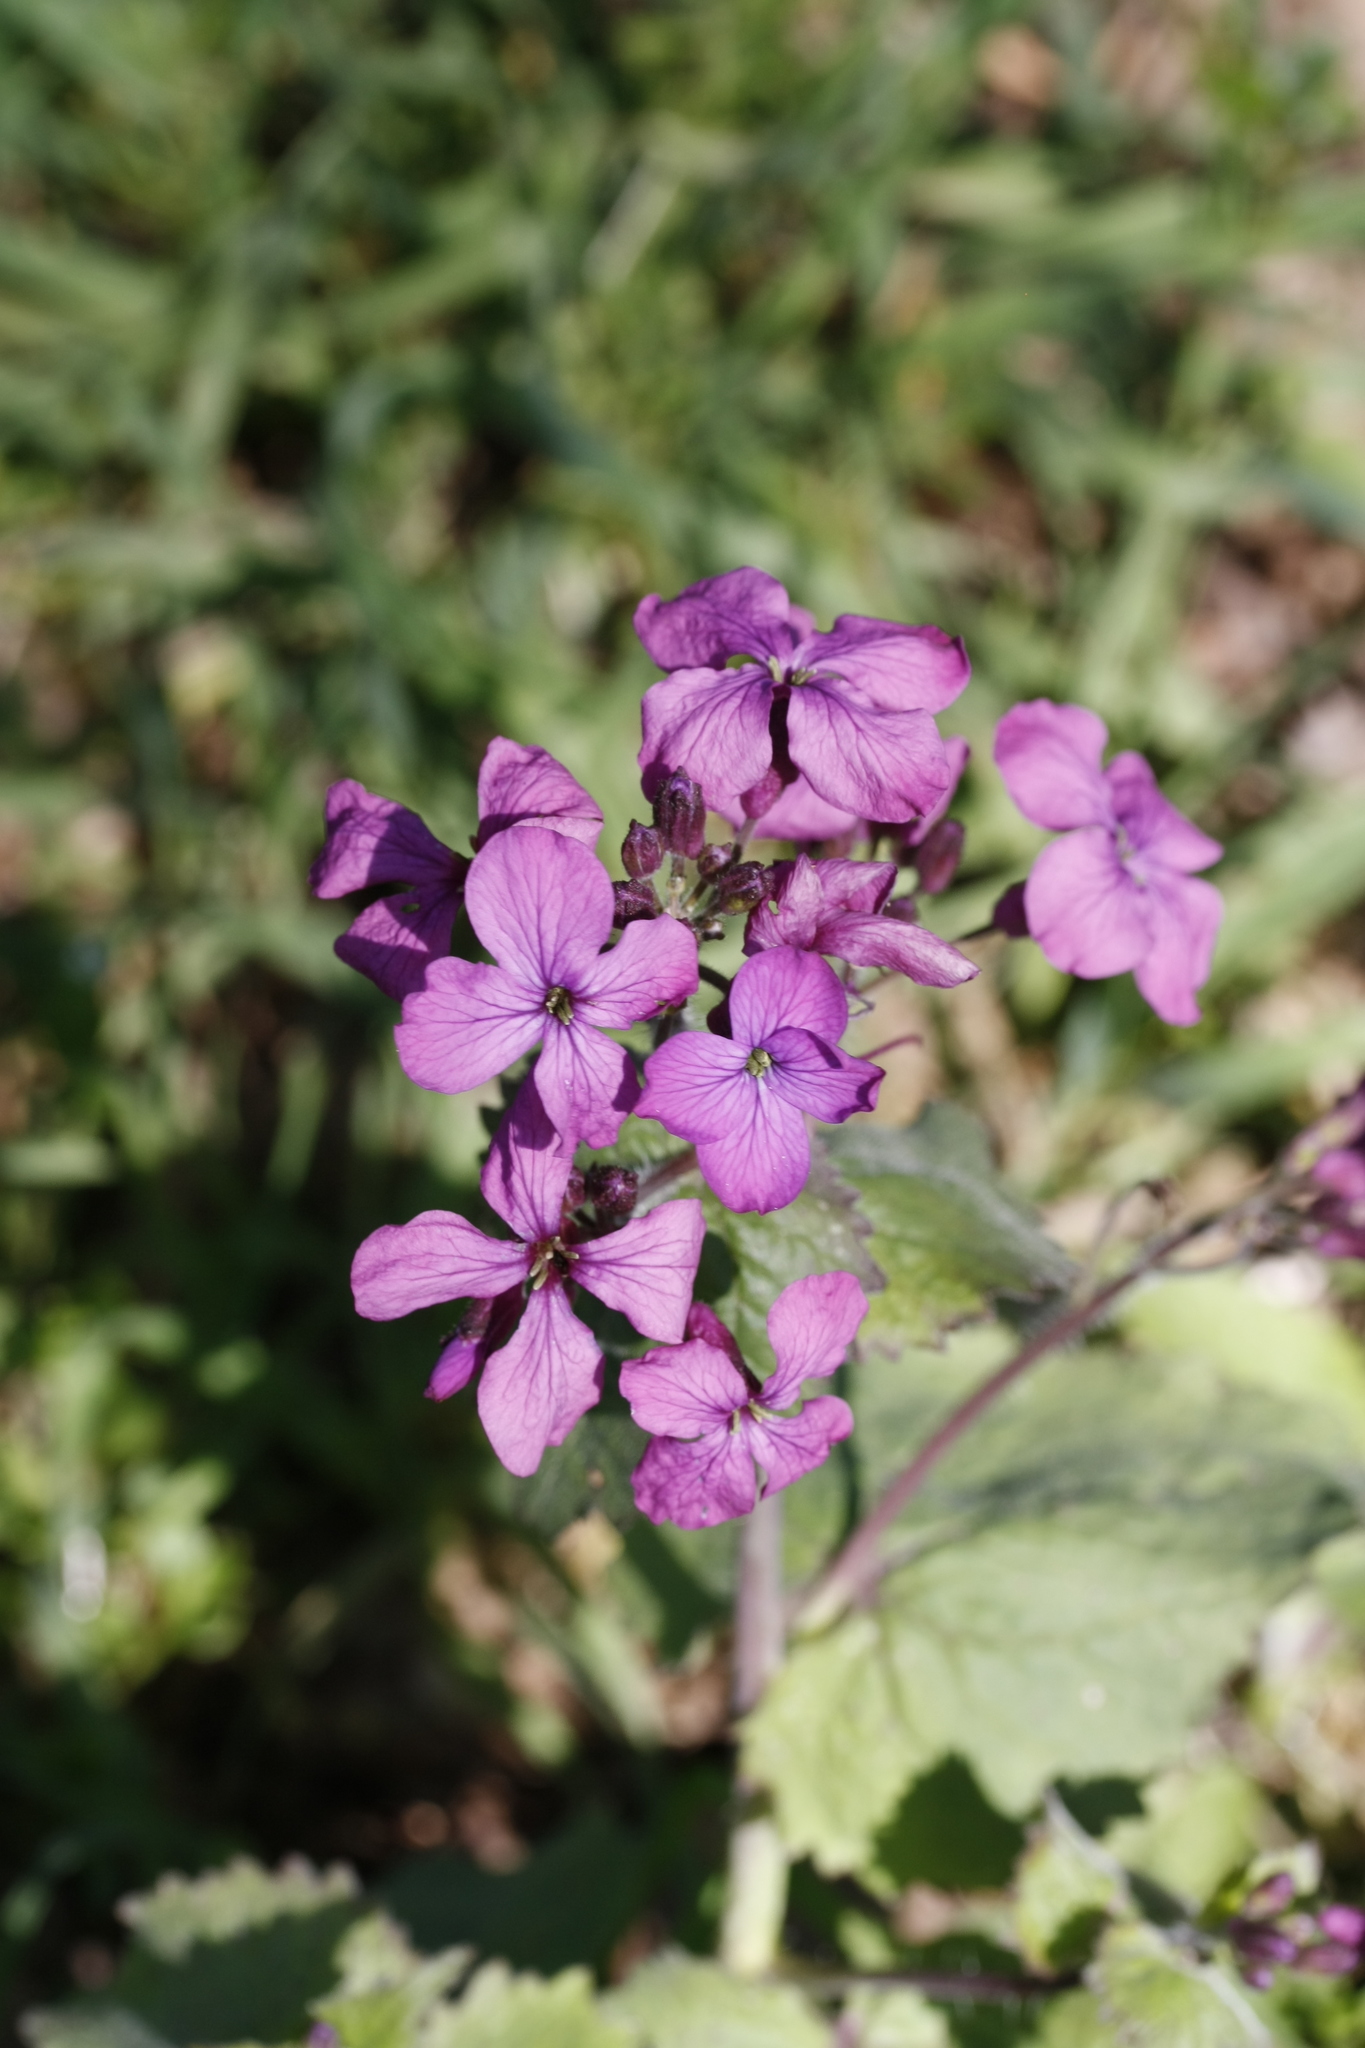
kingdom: Plantae
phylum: Tracheophyta
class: Magnoliopsida
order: Brassicales
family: Brassicaceae
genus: Lunaria
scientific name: Lunaria annua
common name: Honesty
